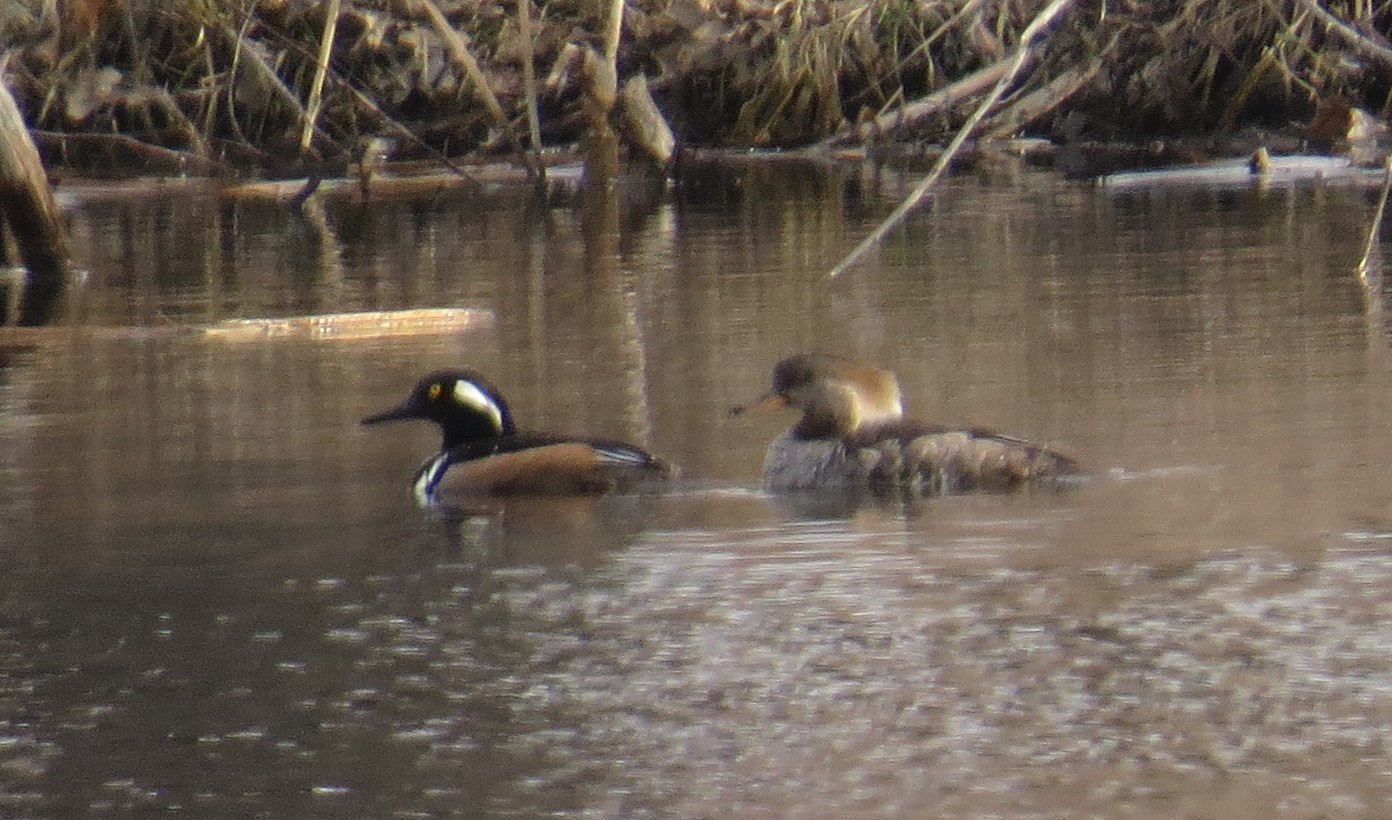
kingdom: Animalia
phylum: Chordata
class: Aves
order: Anseriformes
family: Anatidae
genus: Lophodytes
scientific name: Lophodytes cucullatus
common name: Hooded merganser
